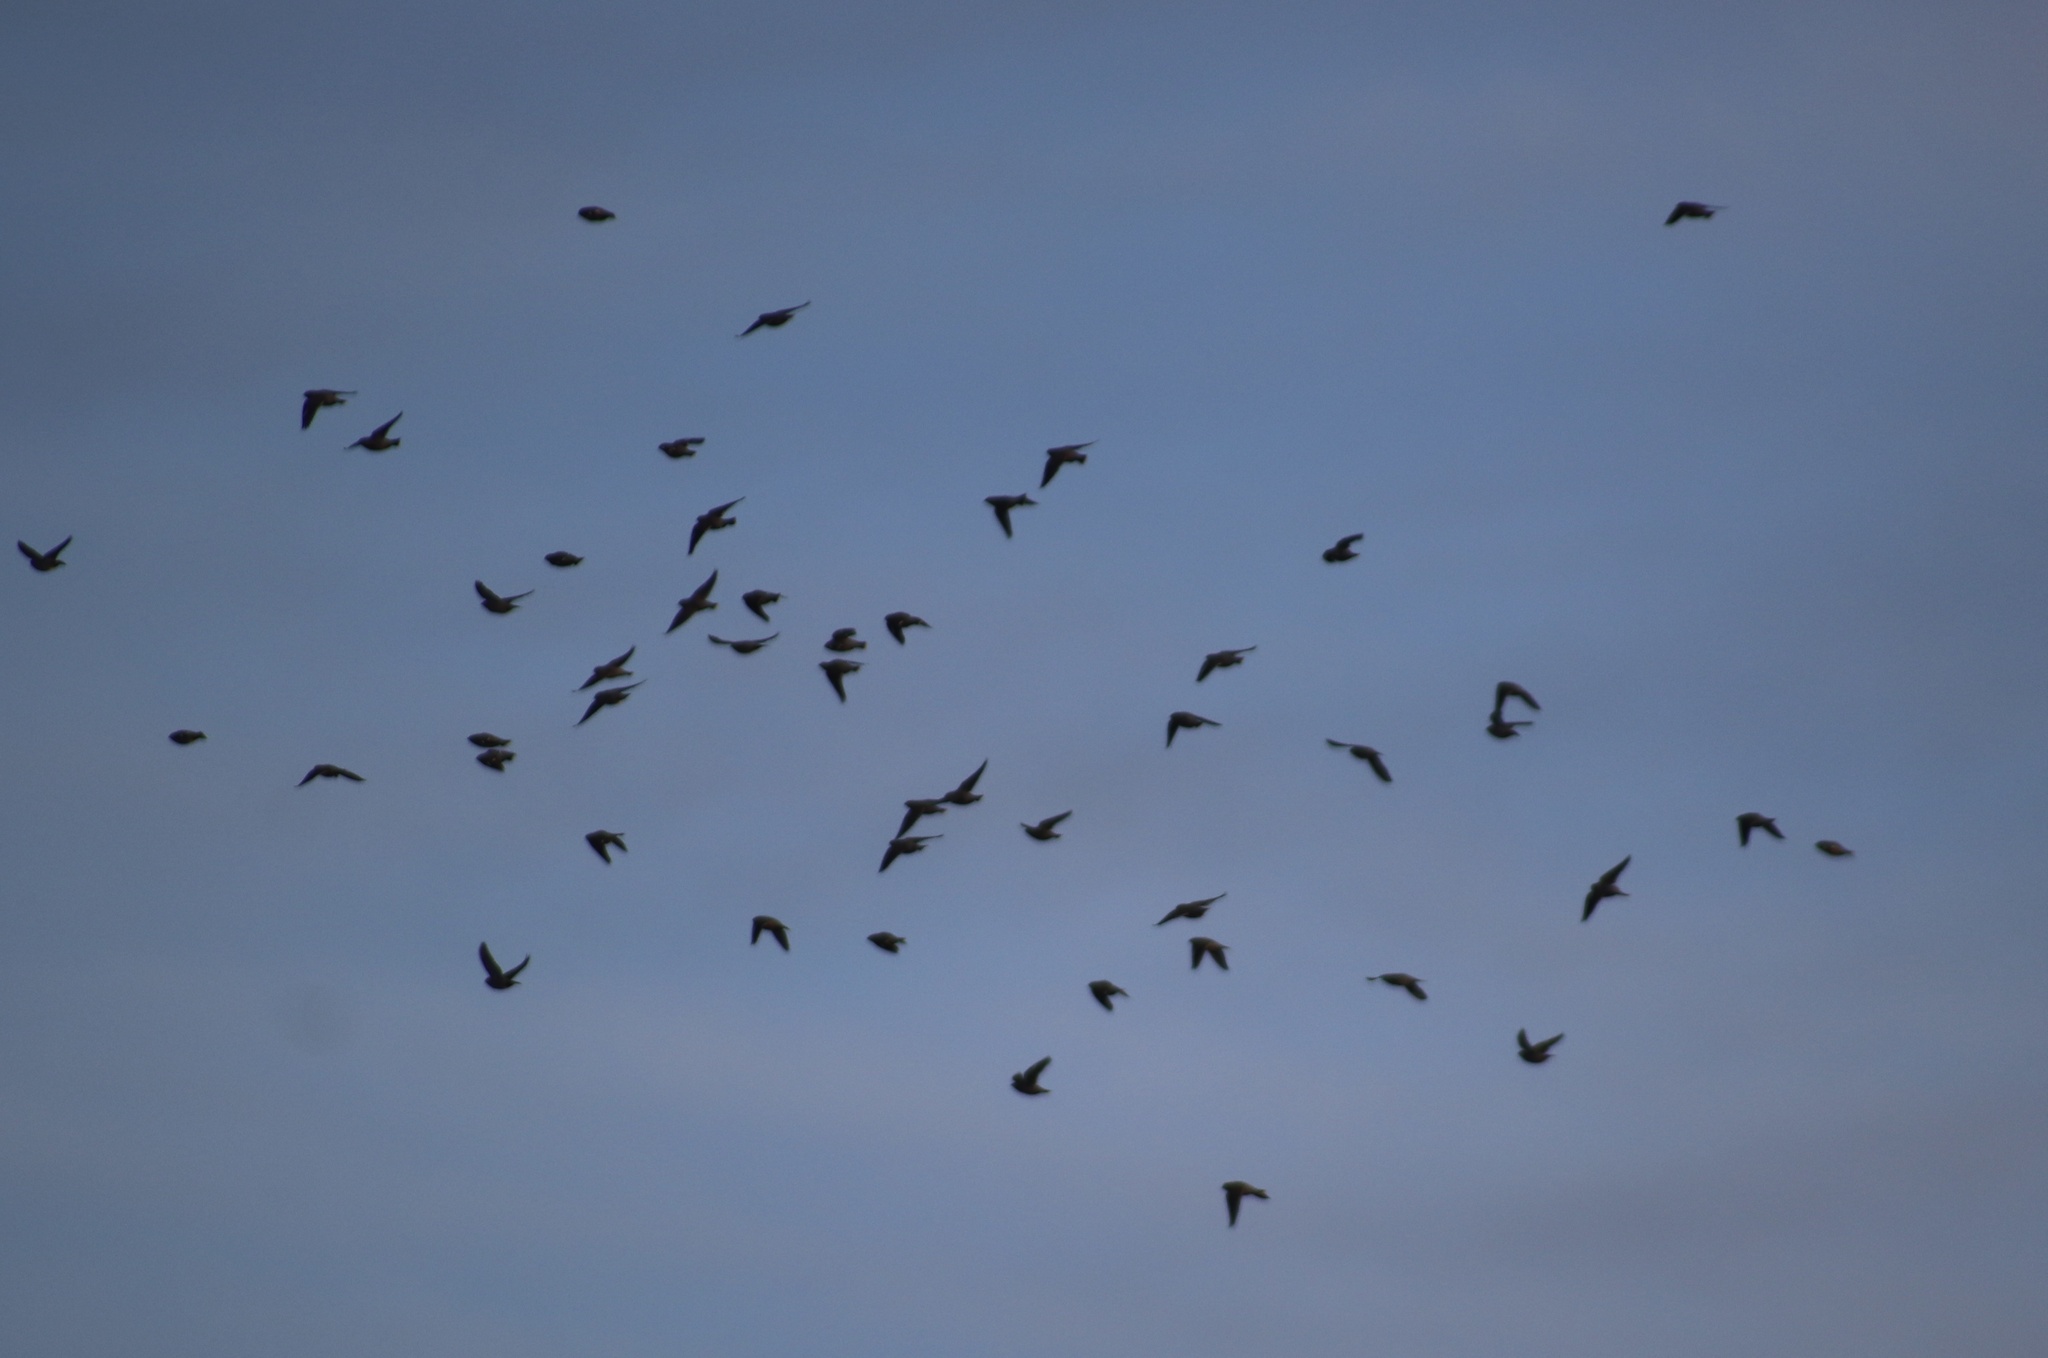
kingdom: Animalia
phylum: Chordata
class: Aves
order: Passeriformes
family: Bombycillidae
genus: Bombycilla
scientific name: Bombycilla garrulus
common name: Bohemian waxwing
